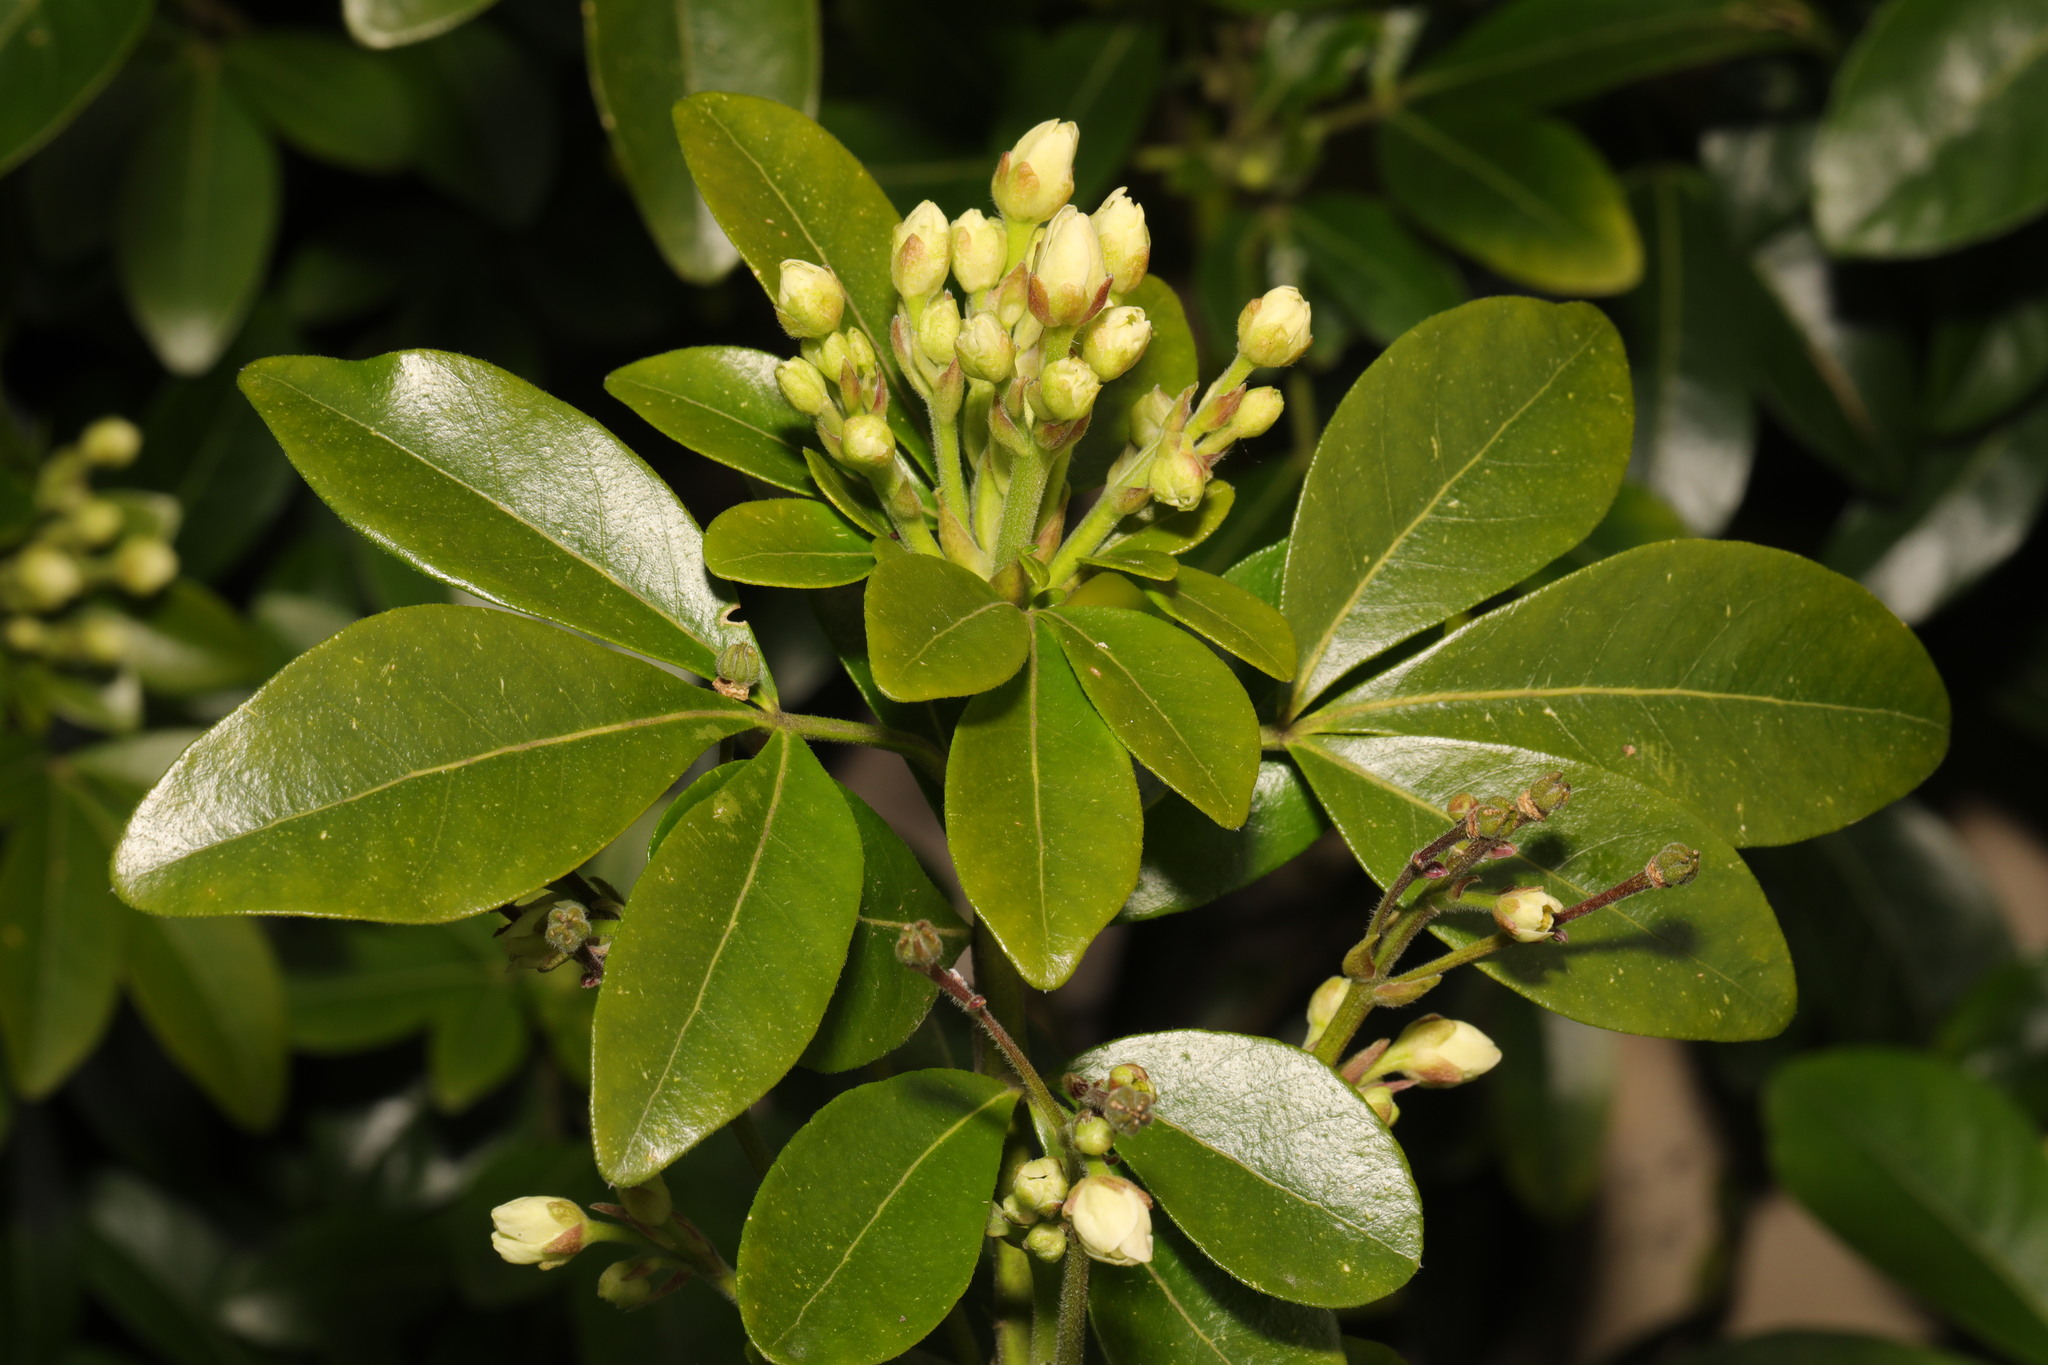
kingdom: Plantae
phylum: Tracheophyta
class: Magnoliopsida
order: Sapindales
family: Rutaceae
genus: Choisya
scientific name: Choisya ternata
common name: Mexican orange
